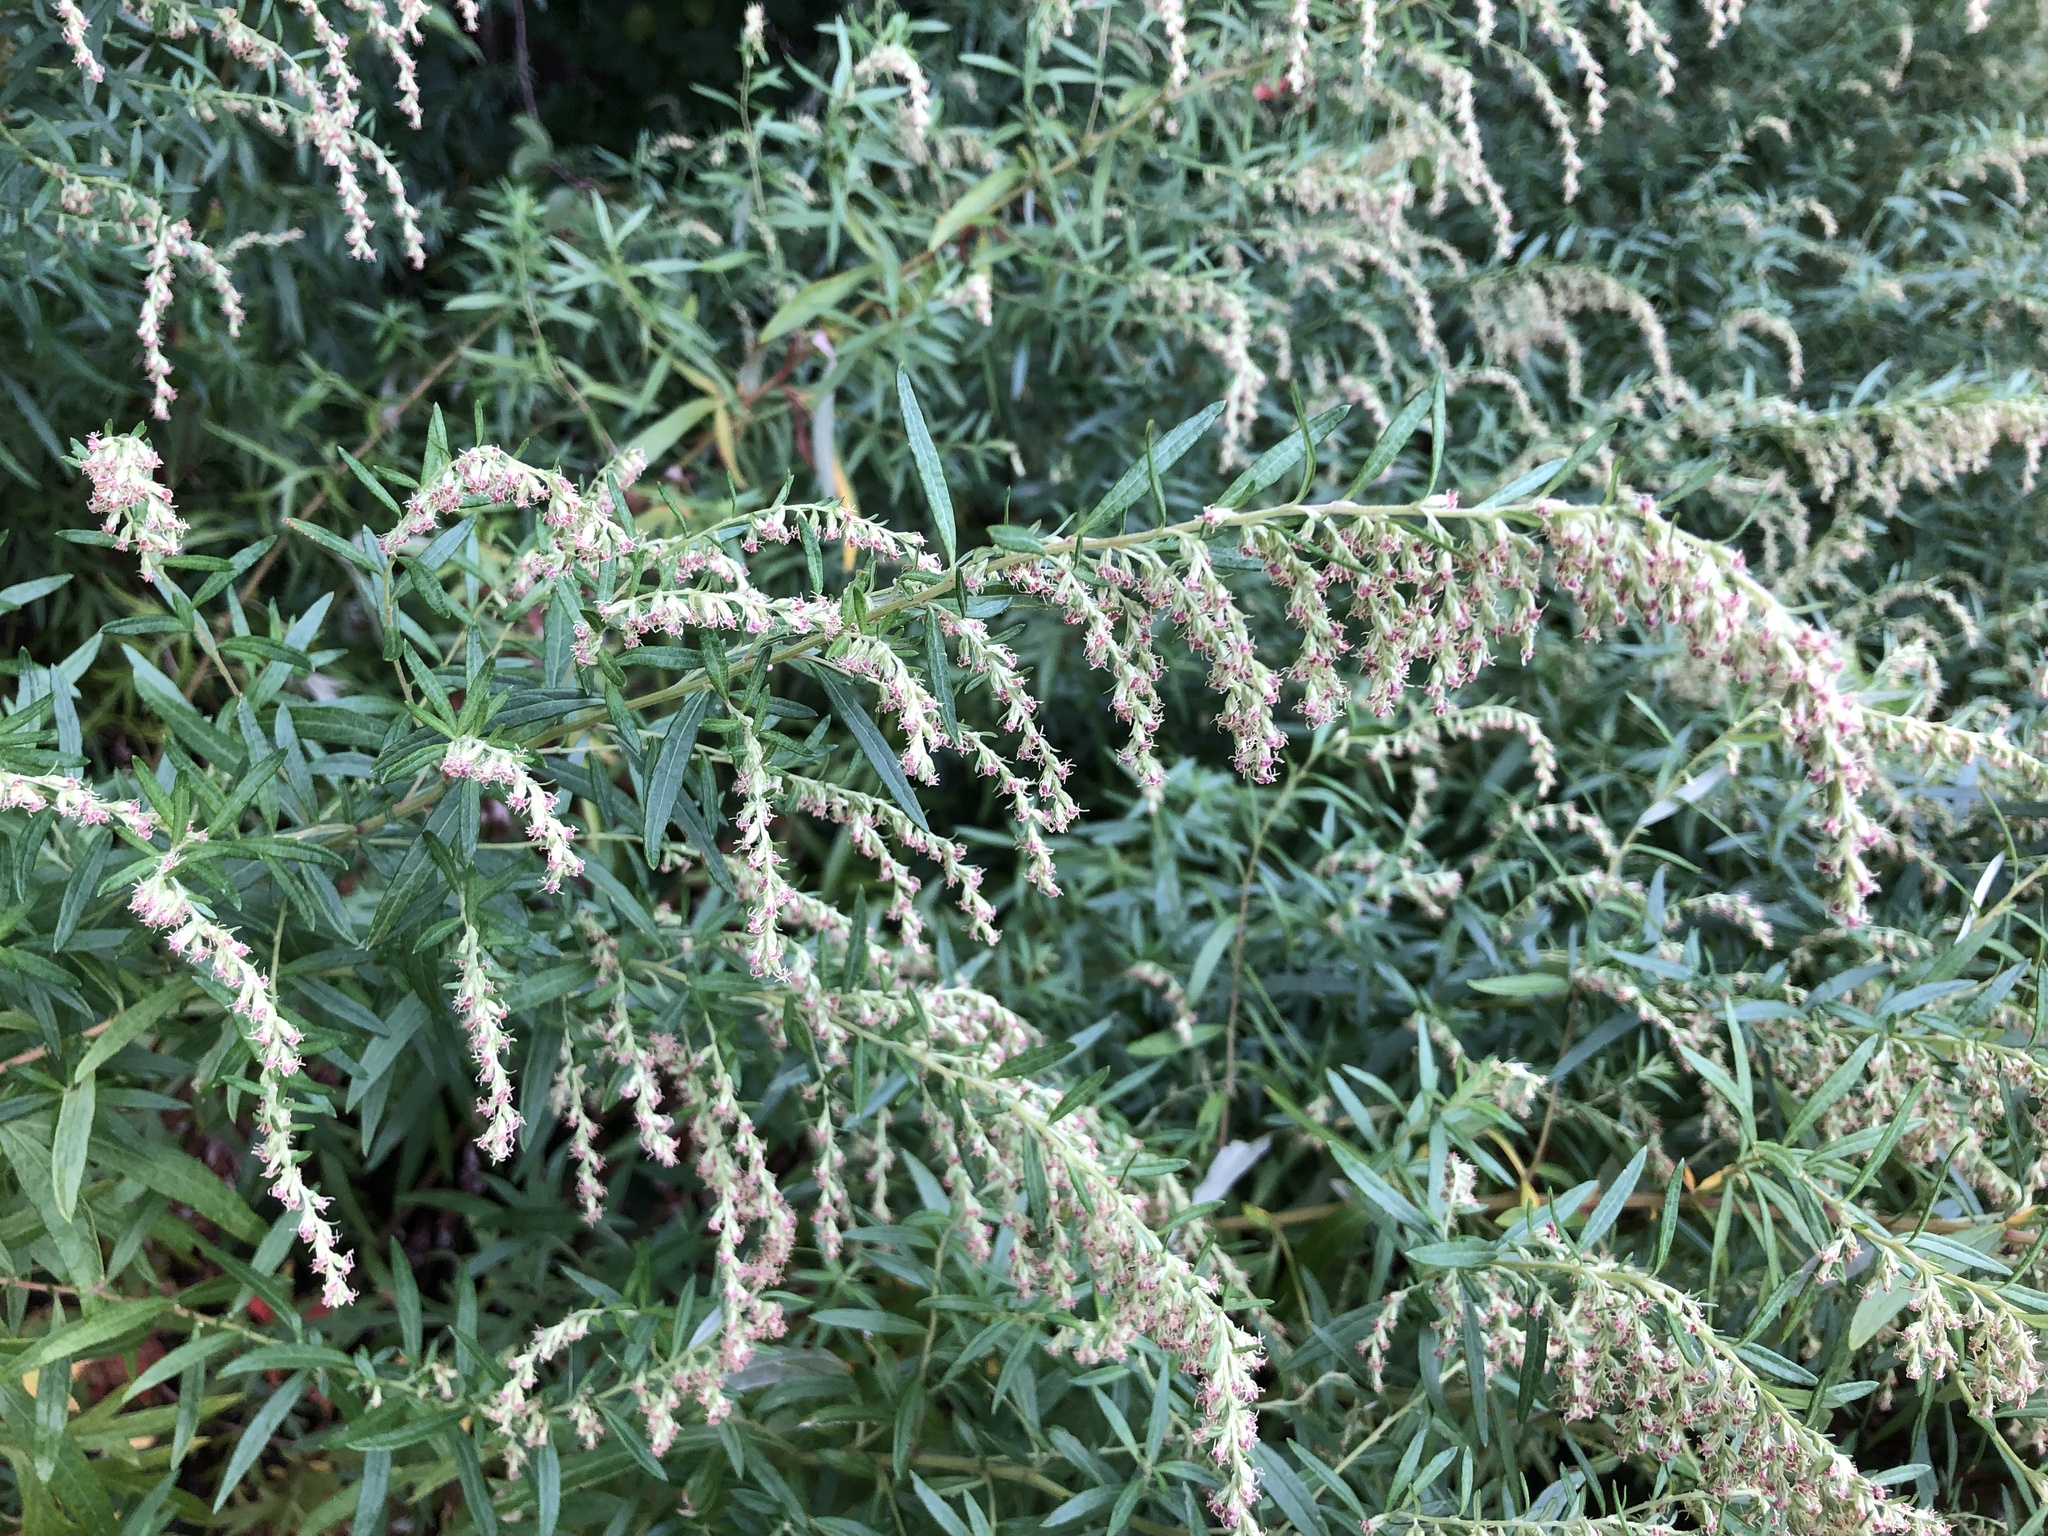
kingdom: Plantae
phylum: Tracheophyta
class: Magnoliopsida
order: Asterales
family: Asteraceae
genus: Artemisia
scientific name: Artemisia vulgaris
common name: Mugwort
